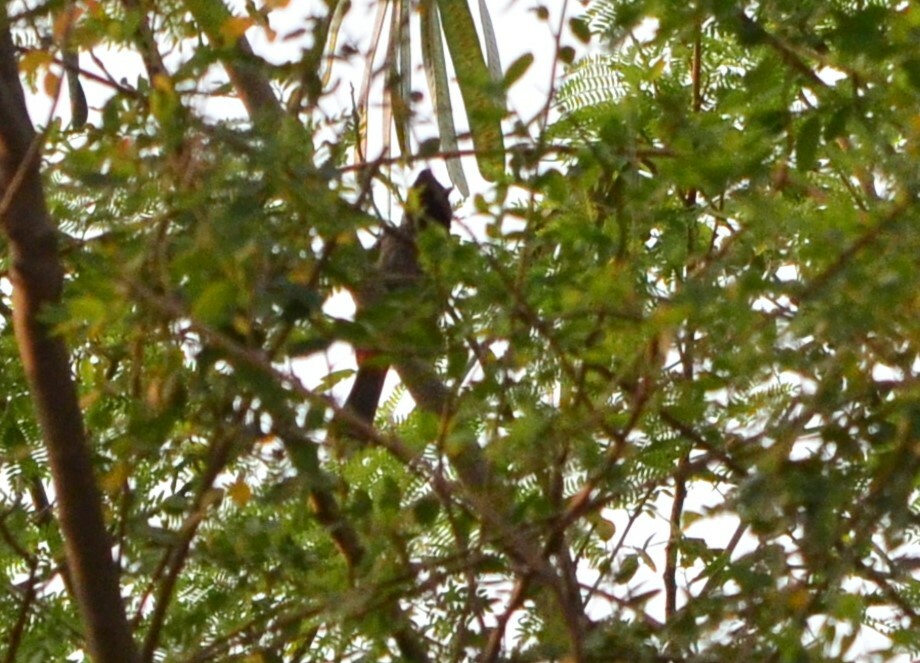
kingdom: Animalia
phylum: Chordata
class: Aves
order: Passeriformes
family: Pycnonotidae
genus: Pycnonotus
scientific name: Pycnonotus cafer
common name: Red-vented bulbul
